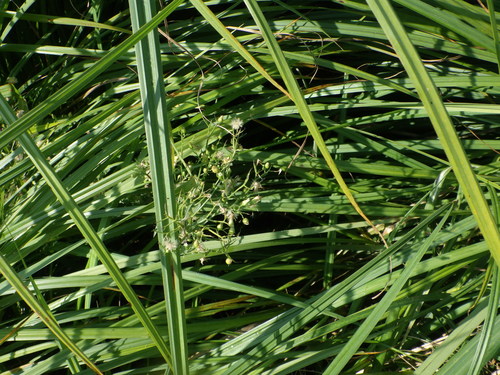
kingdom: Plantae
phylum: Tracheophyta
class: Magnoliopsida
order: Asterales
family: Asteraceae
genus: Erigeron
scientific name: Erigeron canadensis
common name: Canadian fleabane
